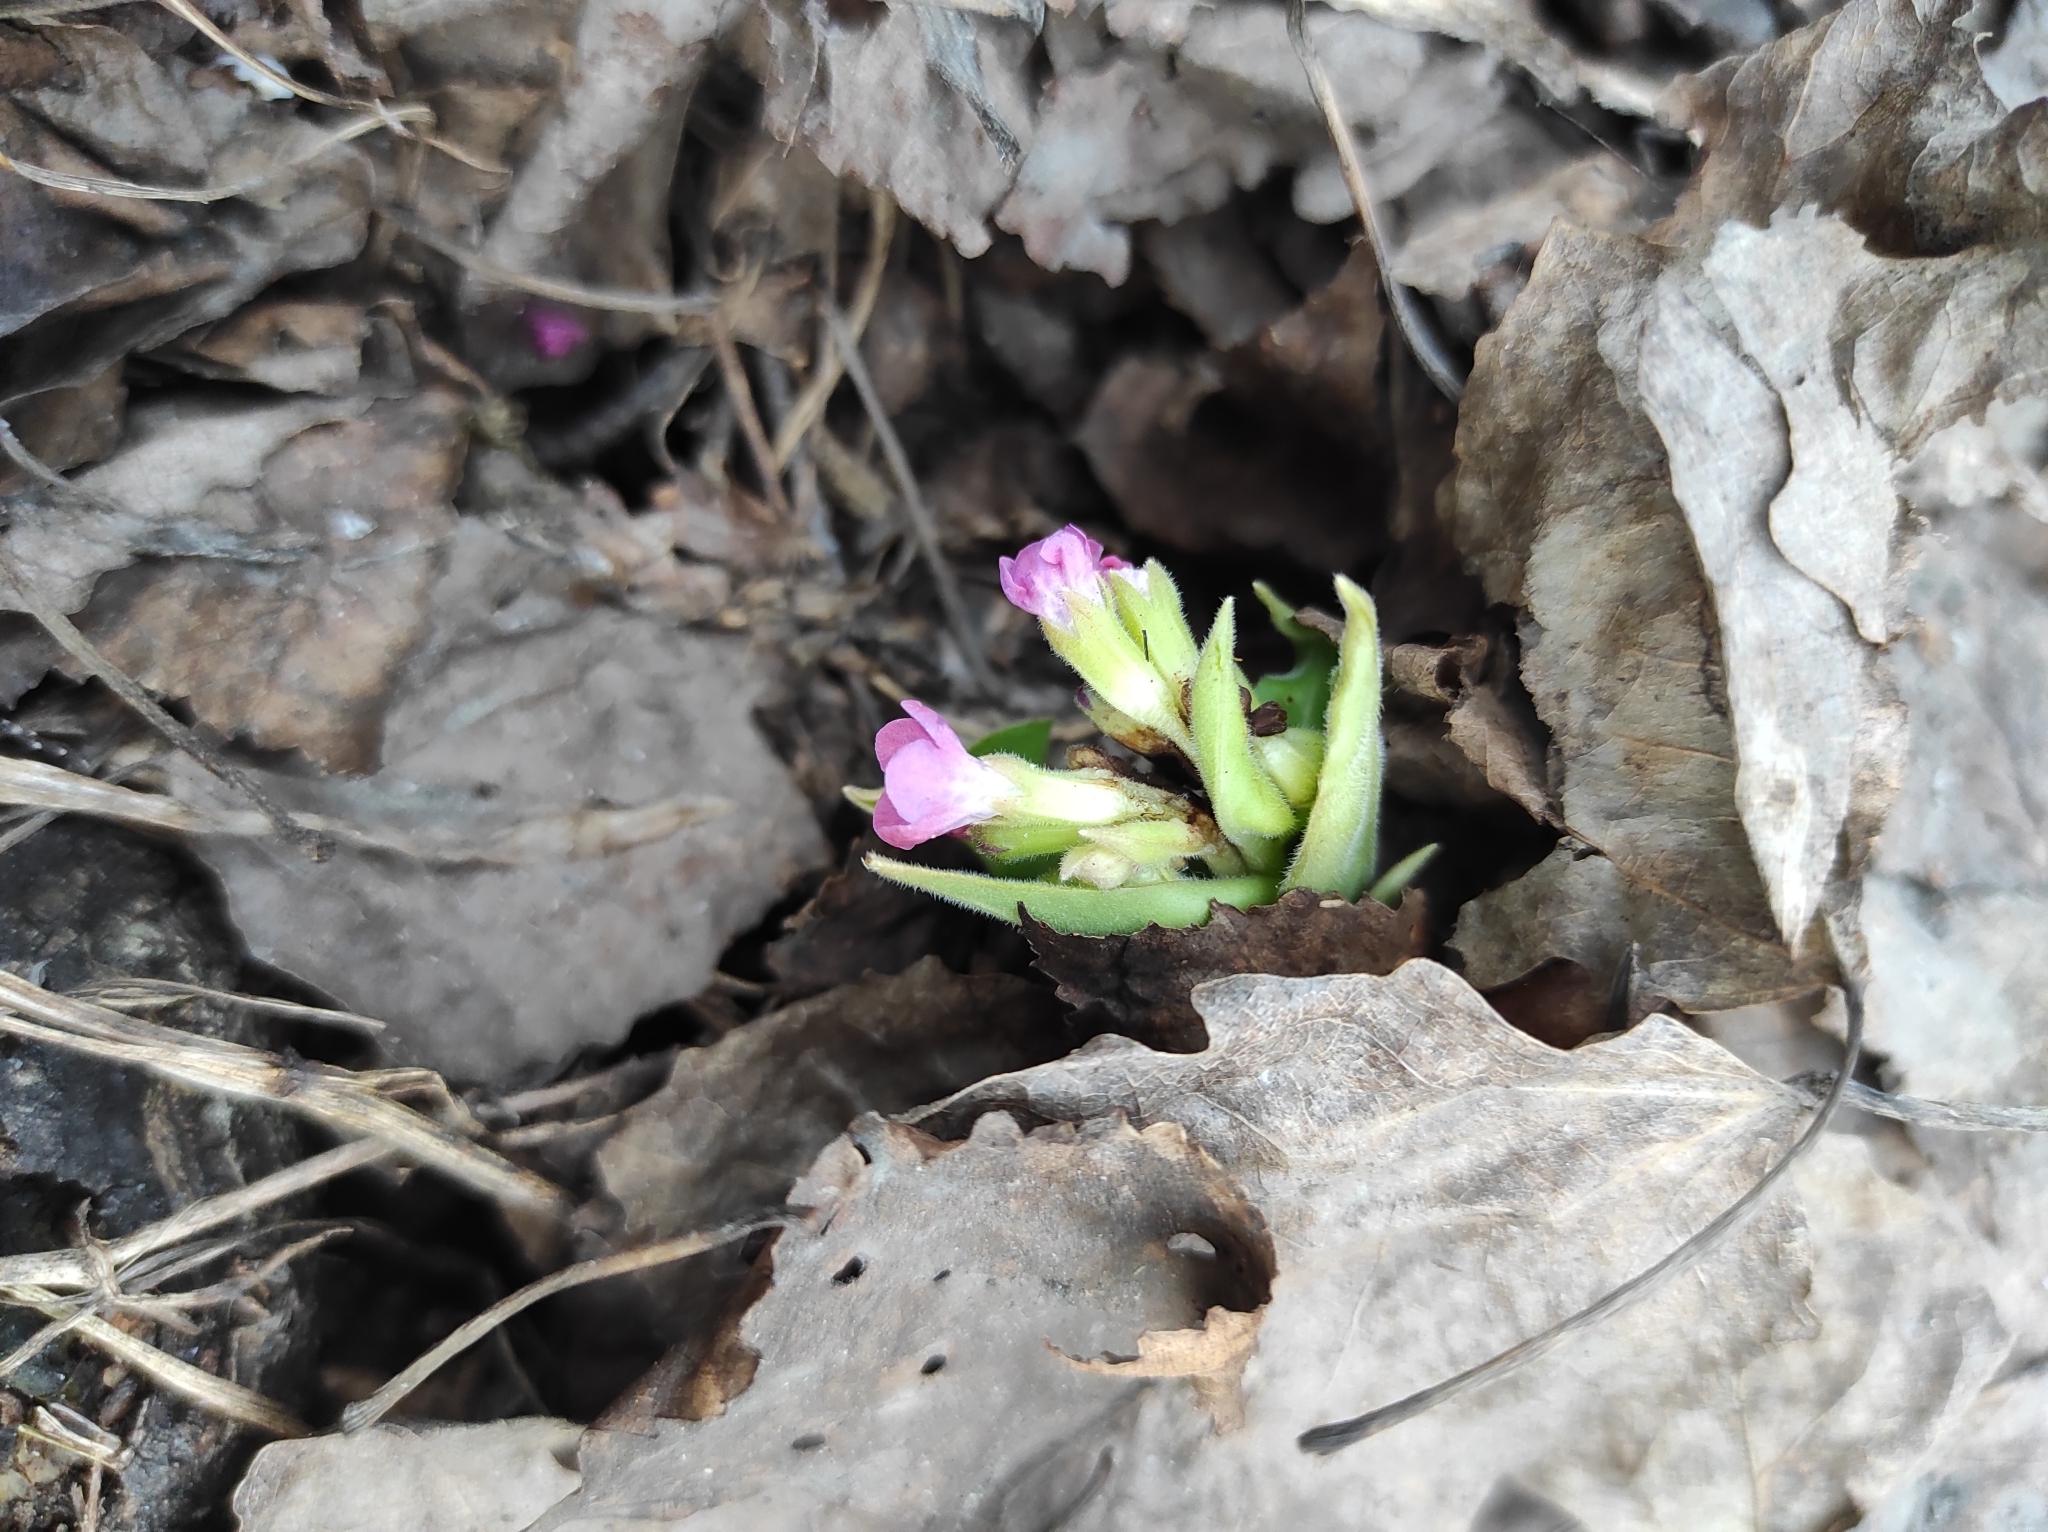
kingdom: Plantae
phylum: Tracheophyta
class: Magnoliopsida
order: Boraginales
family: Boraginaceae
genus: Pulmonaria
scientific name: Pulmonaria mollis
